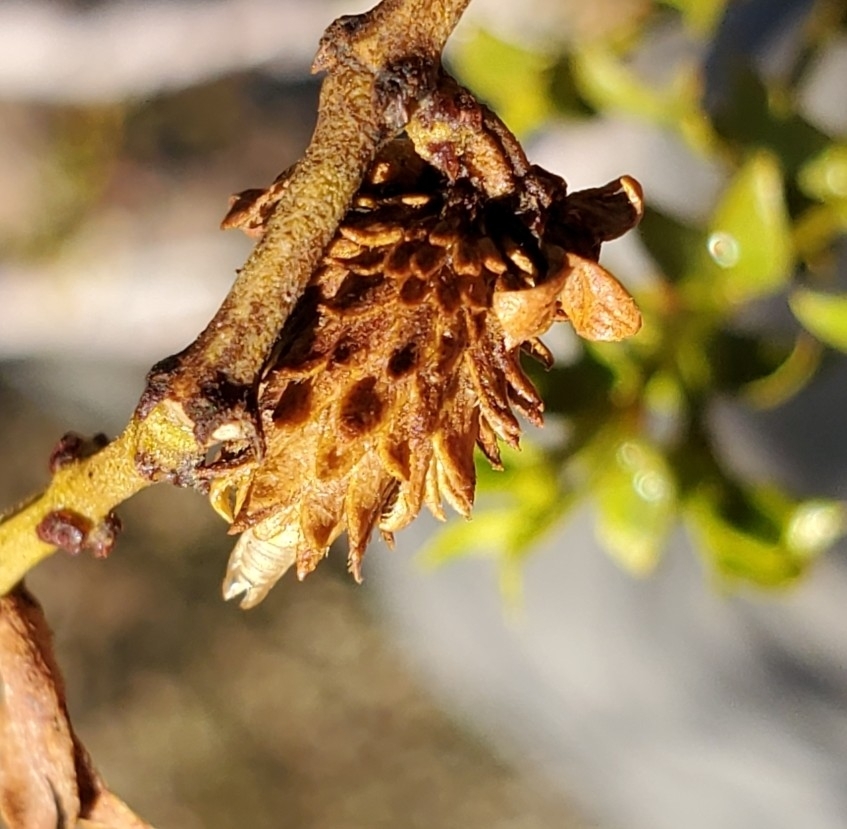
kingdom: Animalia
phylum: Arthropoda
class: Insecta
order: Diptera
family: Cecidomyiidae
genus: Asphondylia
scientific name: Asphondylia rosetta
